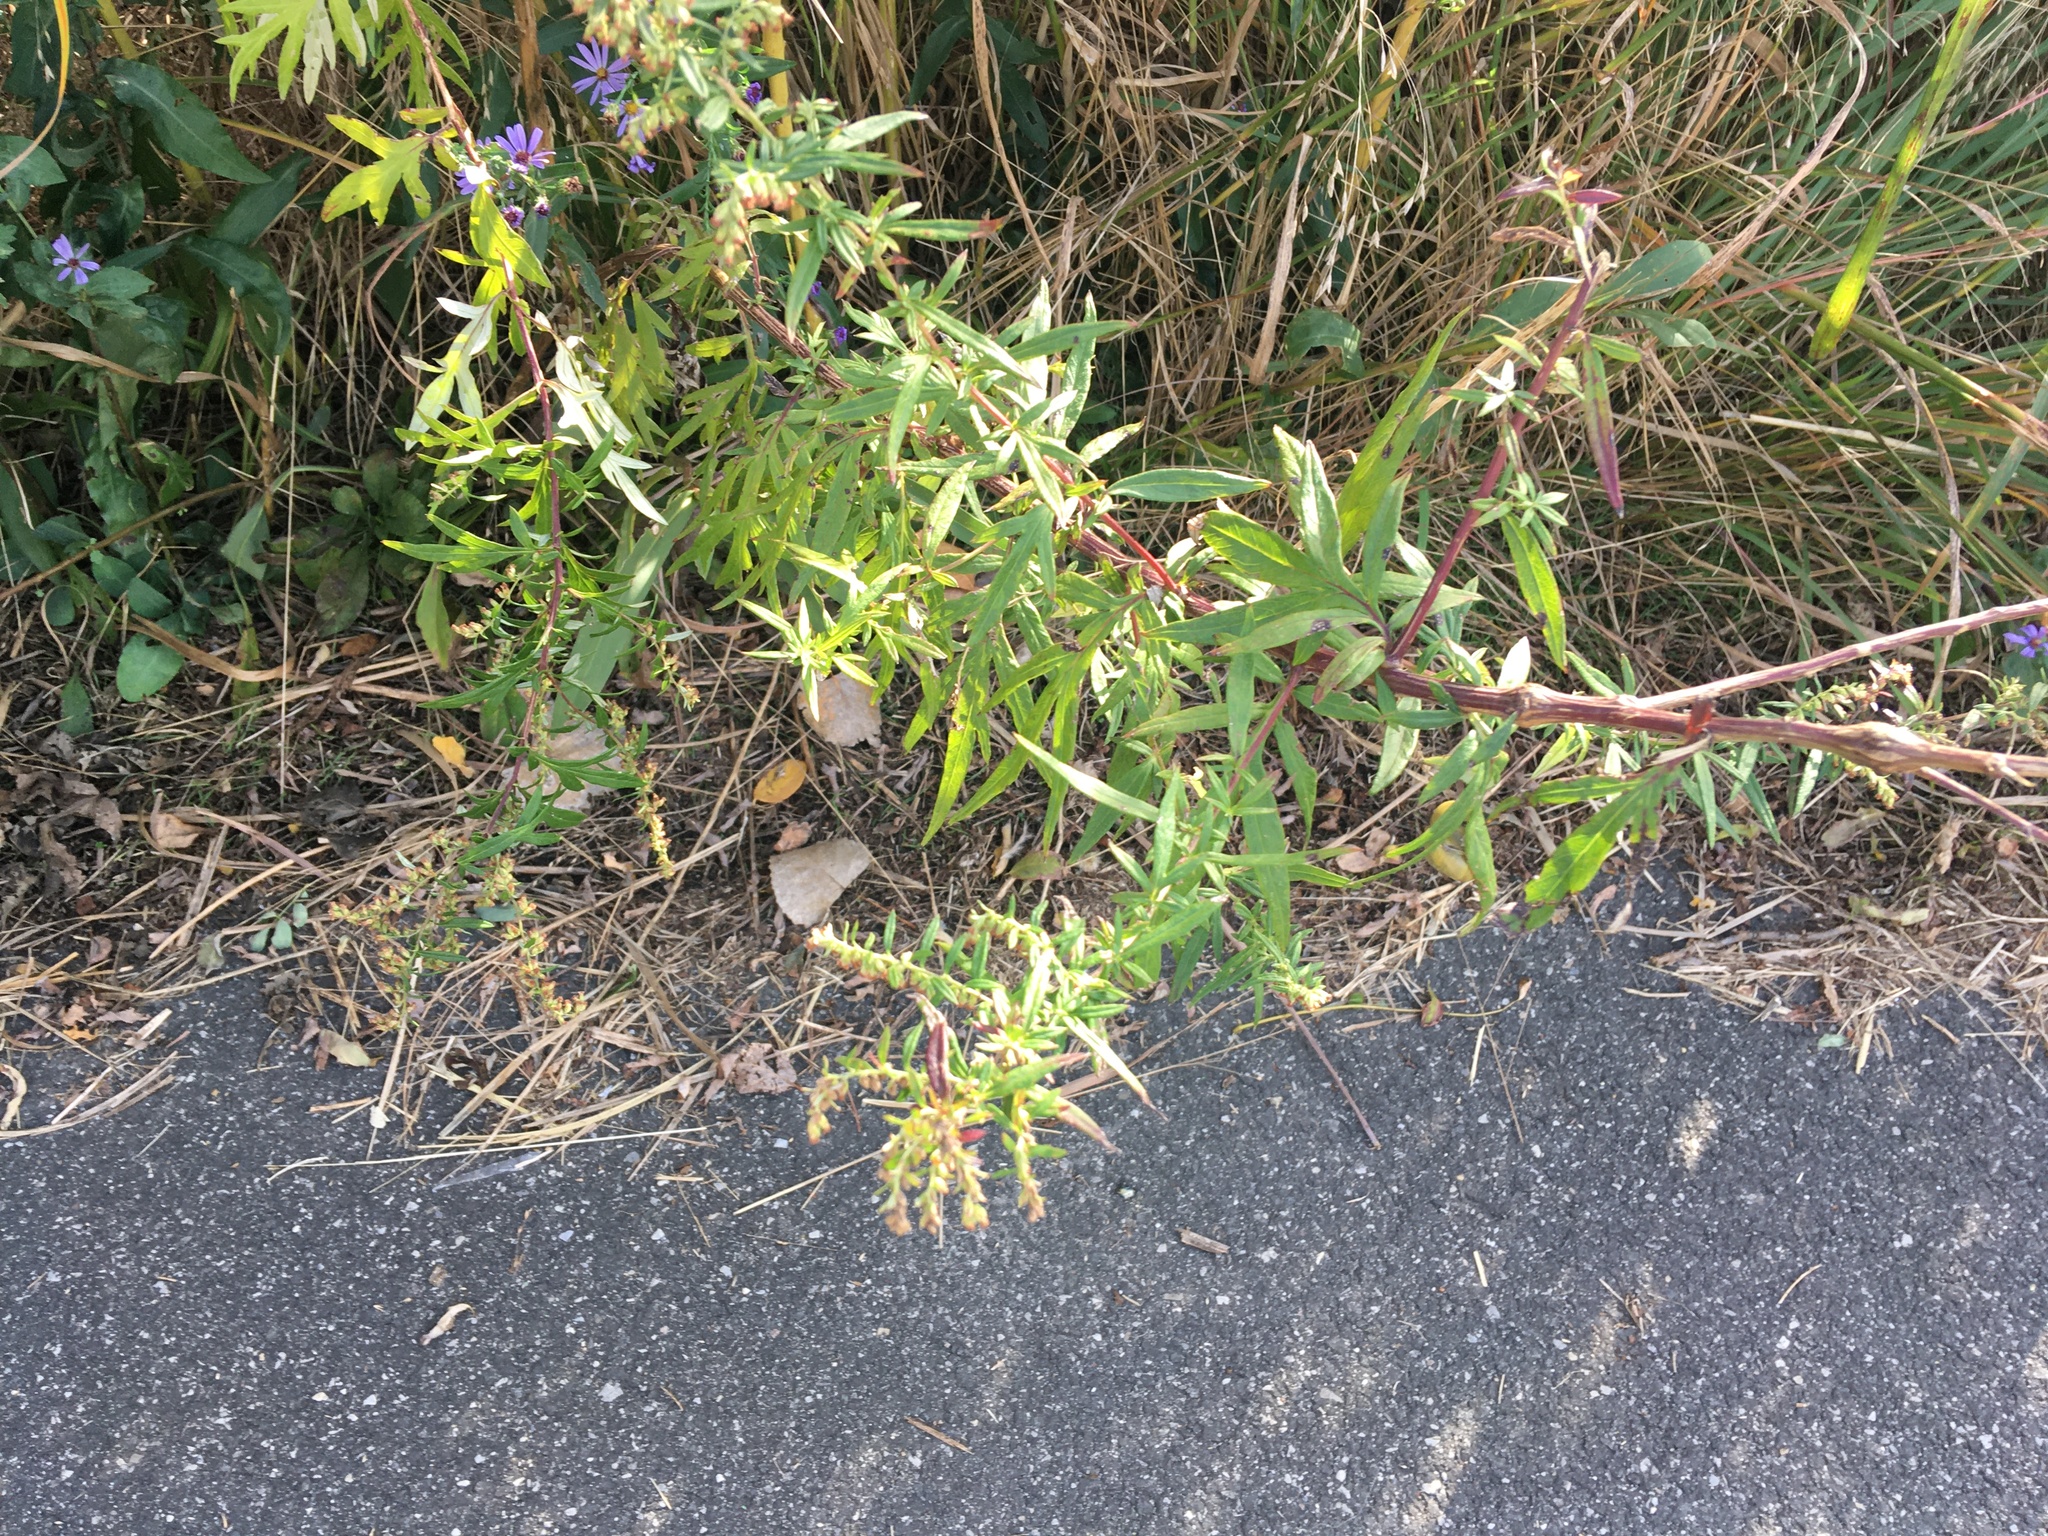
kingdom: Plantae
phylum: Tracheophyta
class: Magnoliopsida
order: Asterales
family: Asteraceae
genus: Artemisia
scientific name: Artemisia vulgaris
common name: Mugwort
